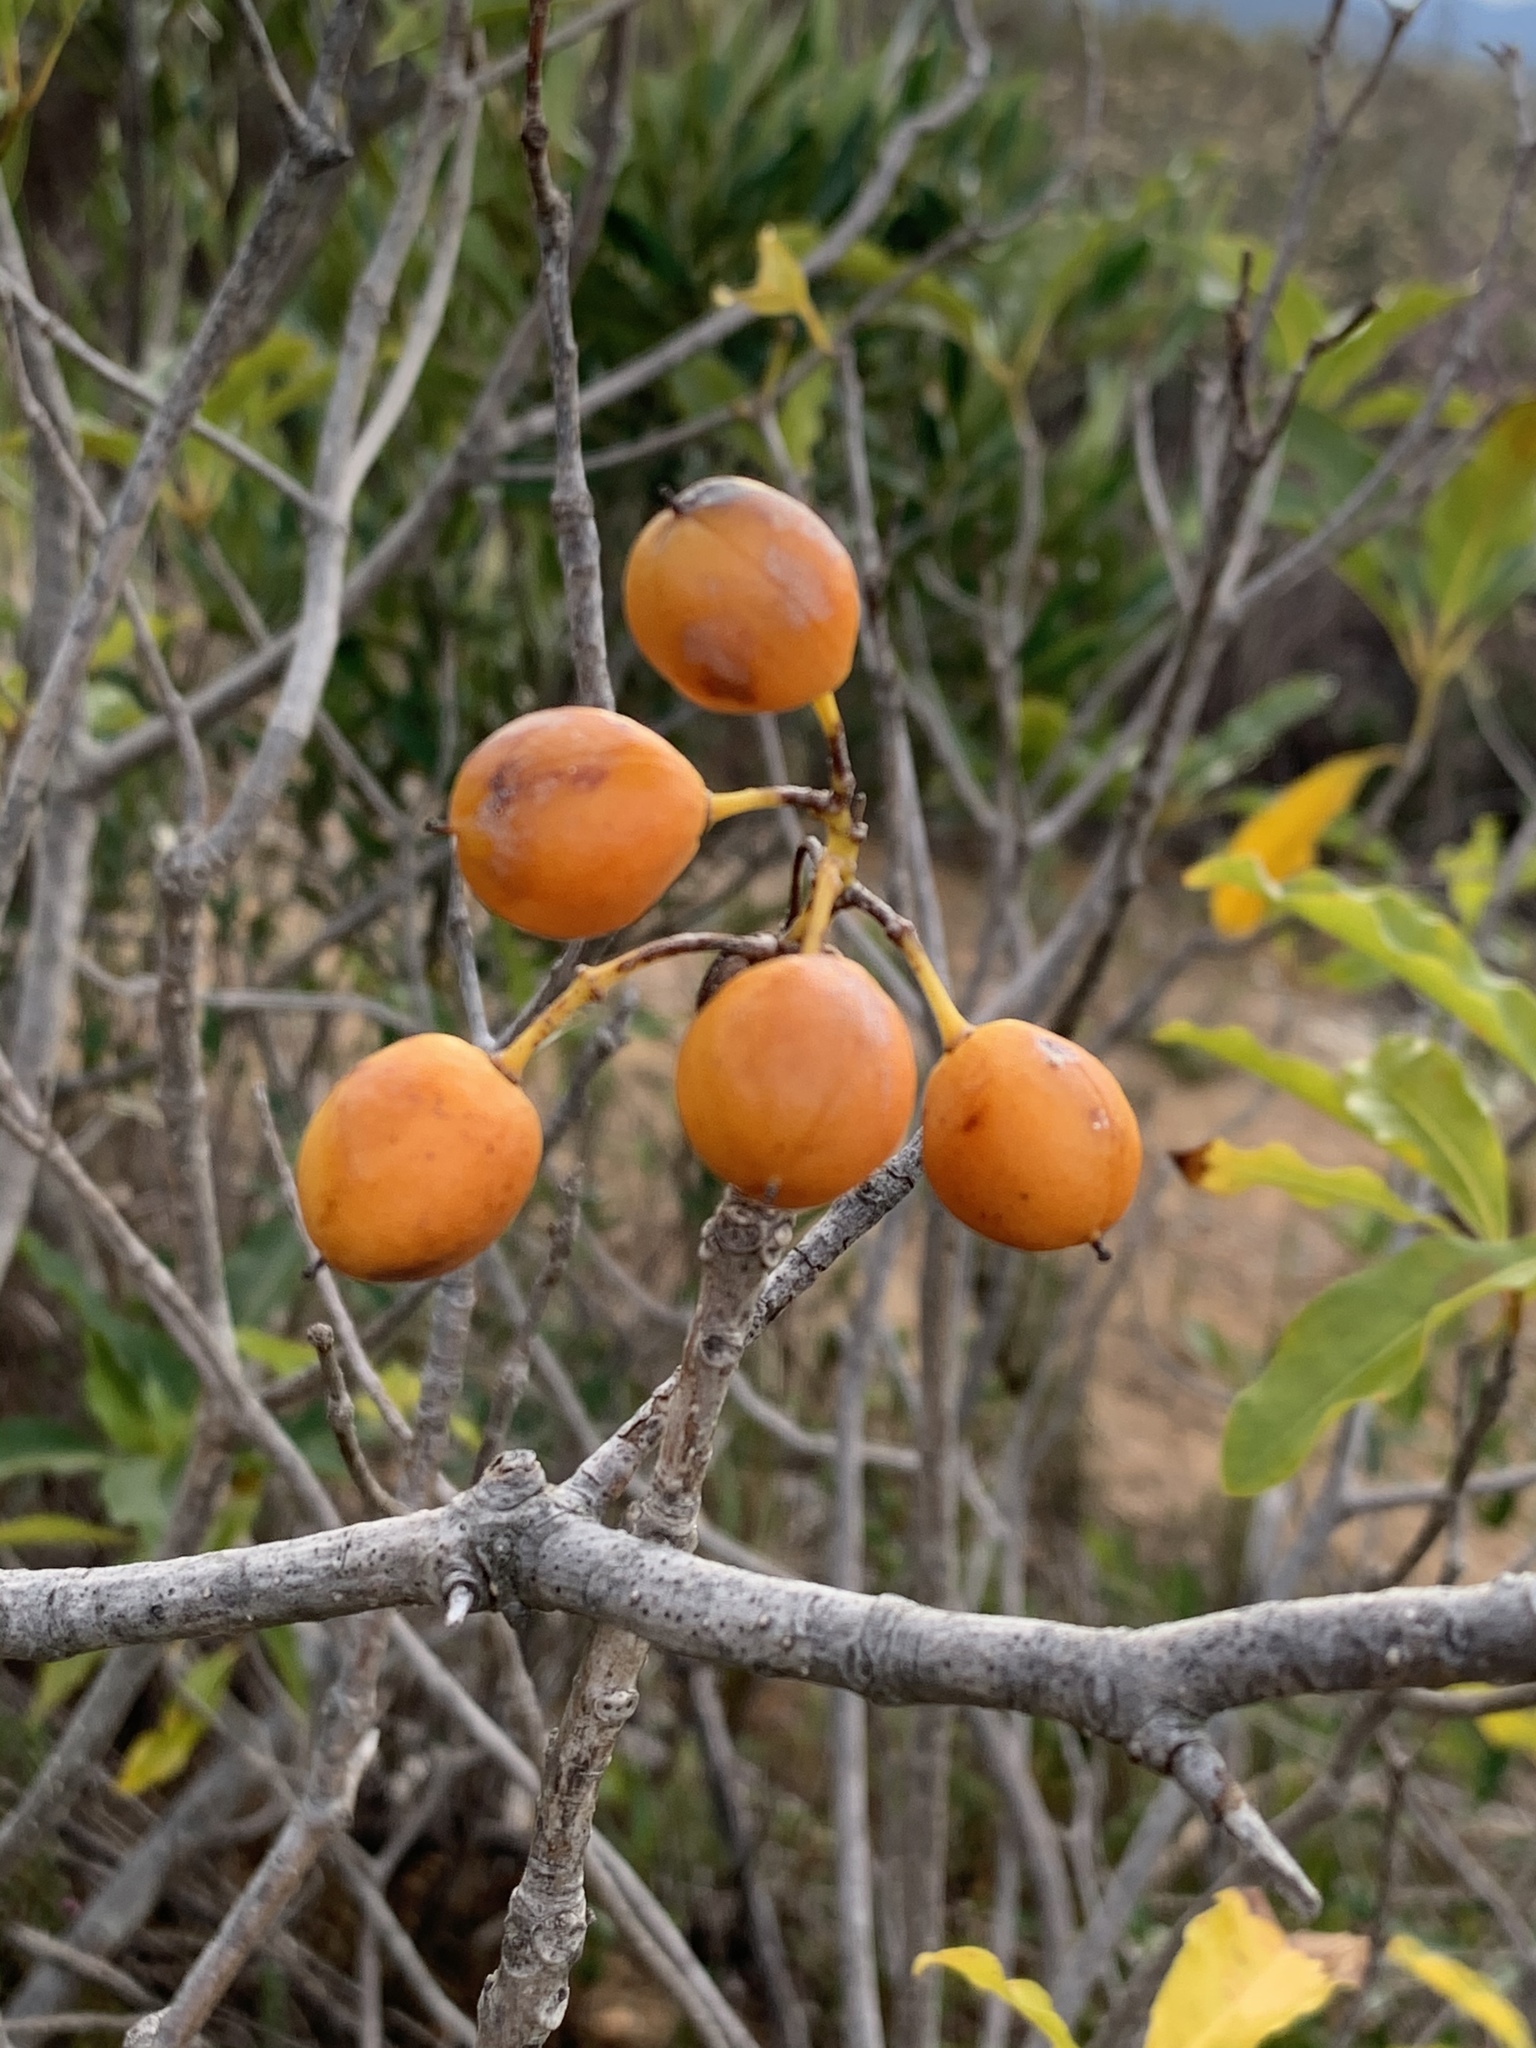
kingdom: Plantae
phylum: Tracheophyta
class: Magnoliopsida
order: Apiales
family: Pittosporaceae
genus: Pittosporum
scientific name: Pittosporum undulatum
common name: Australian cheesewood
